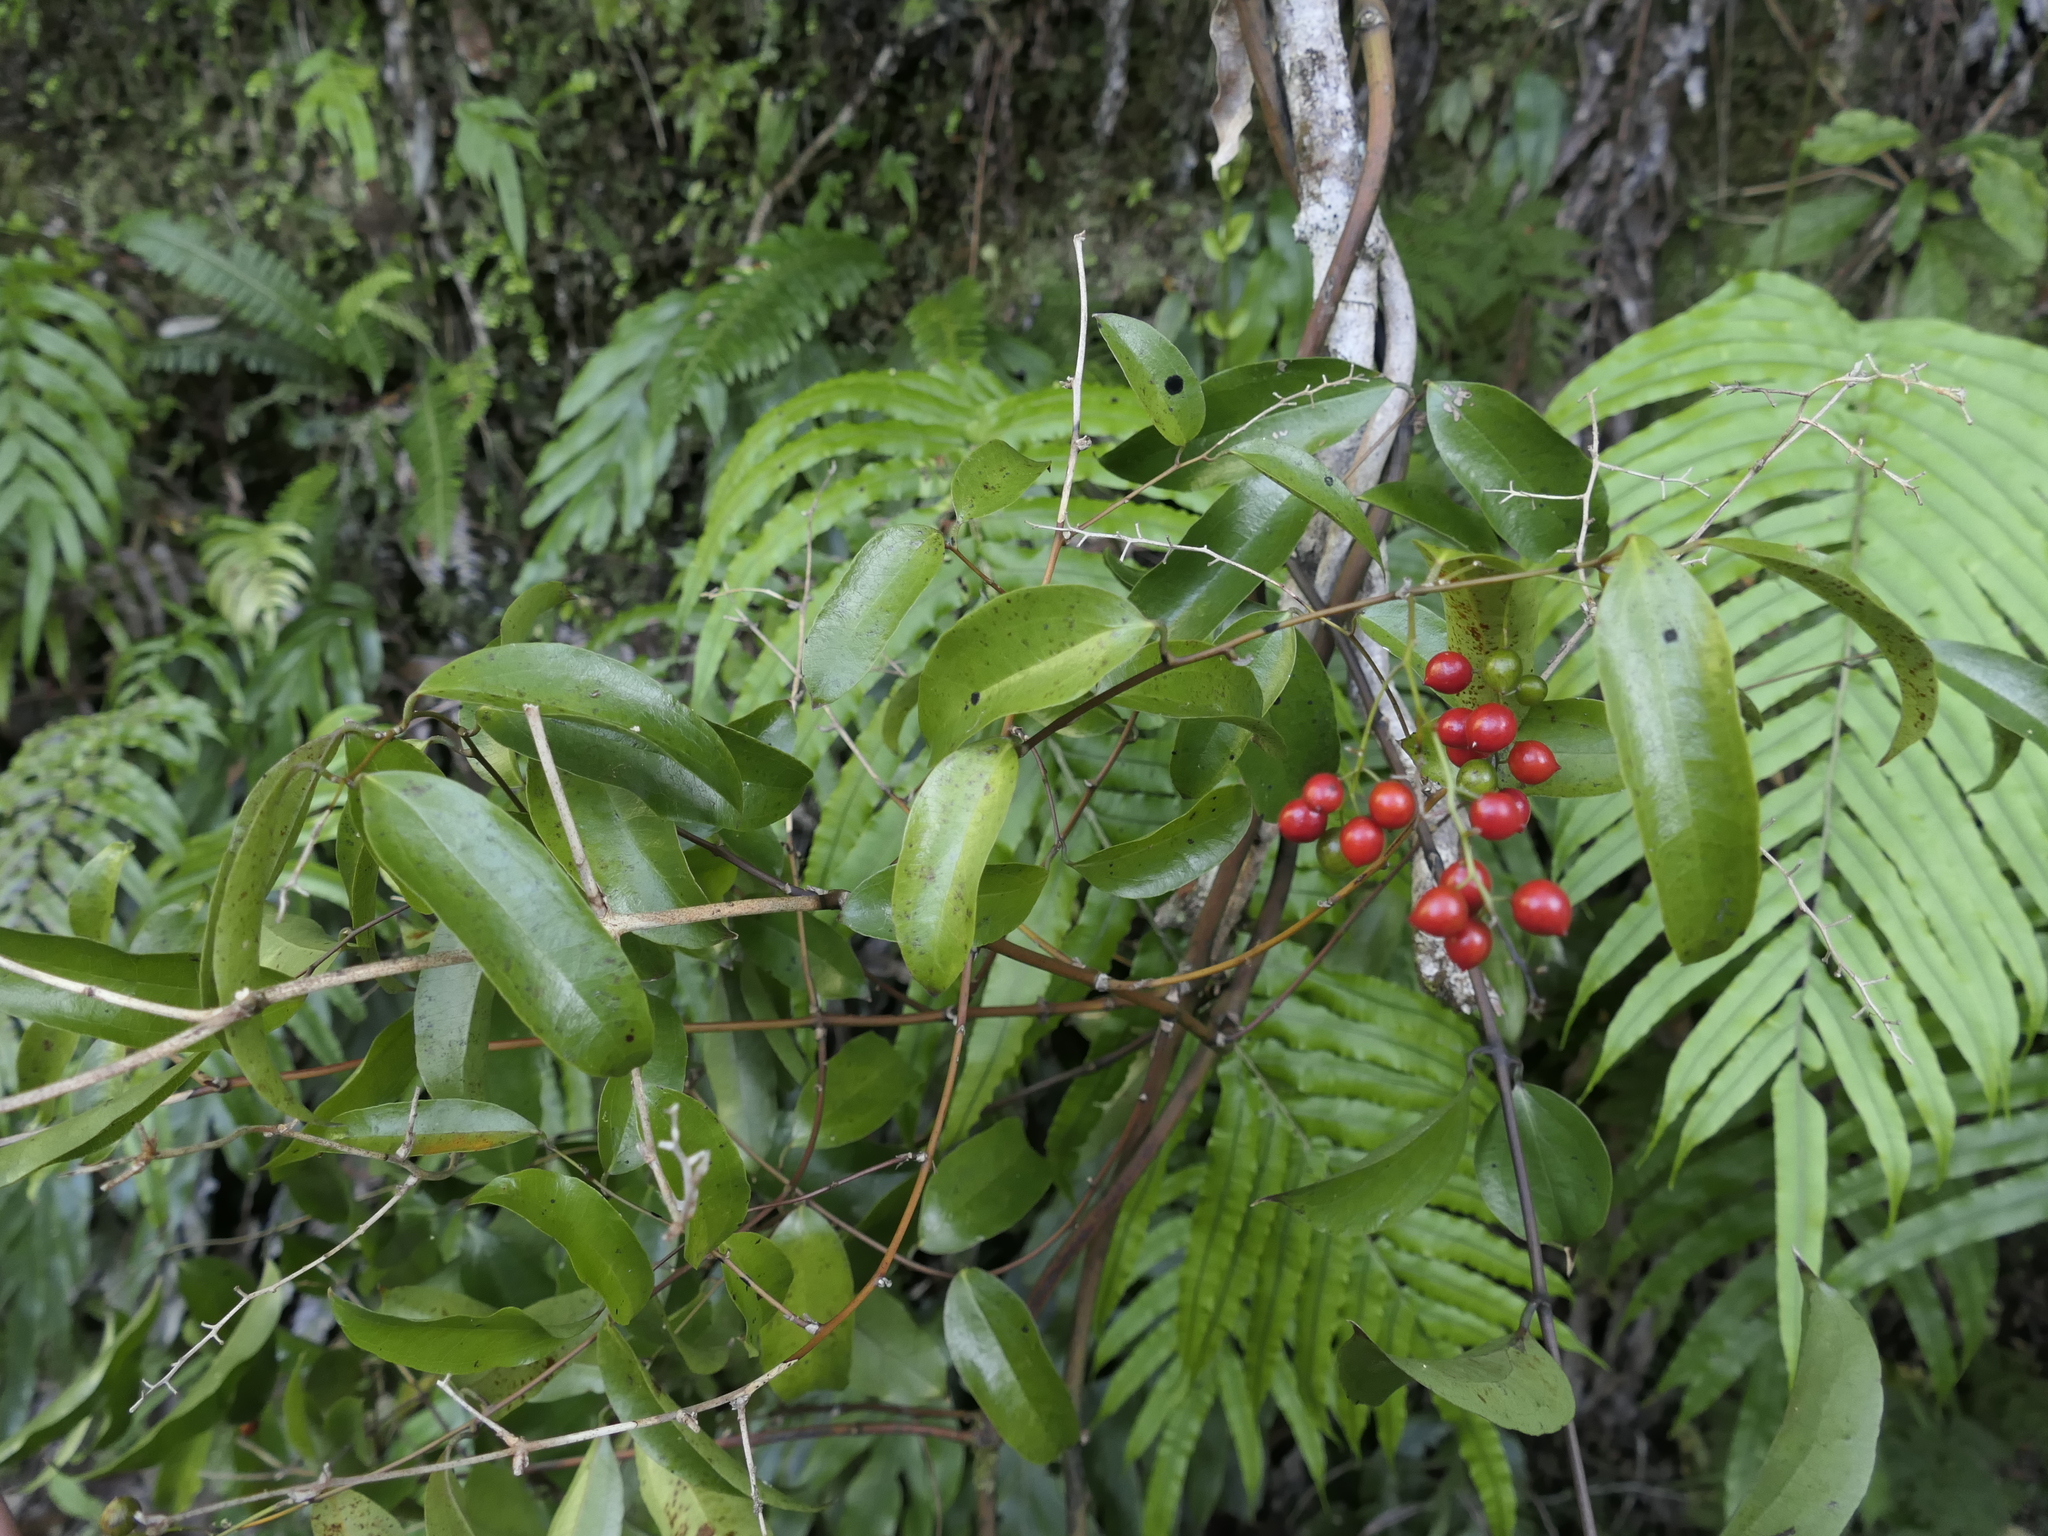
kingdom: Plantae
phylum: Tracheophyta
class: Liliopsida
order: Liliales
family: Ripogonaceae
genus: Ripogonum
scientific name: Ripogonum scandens
